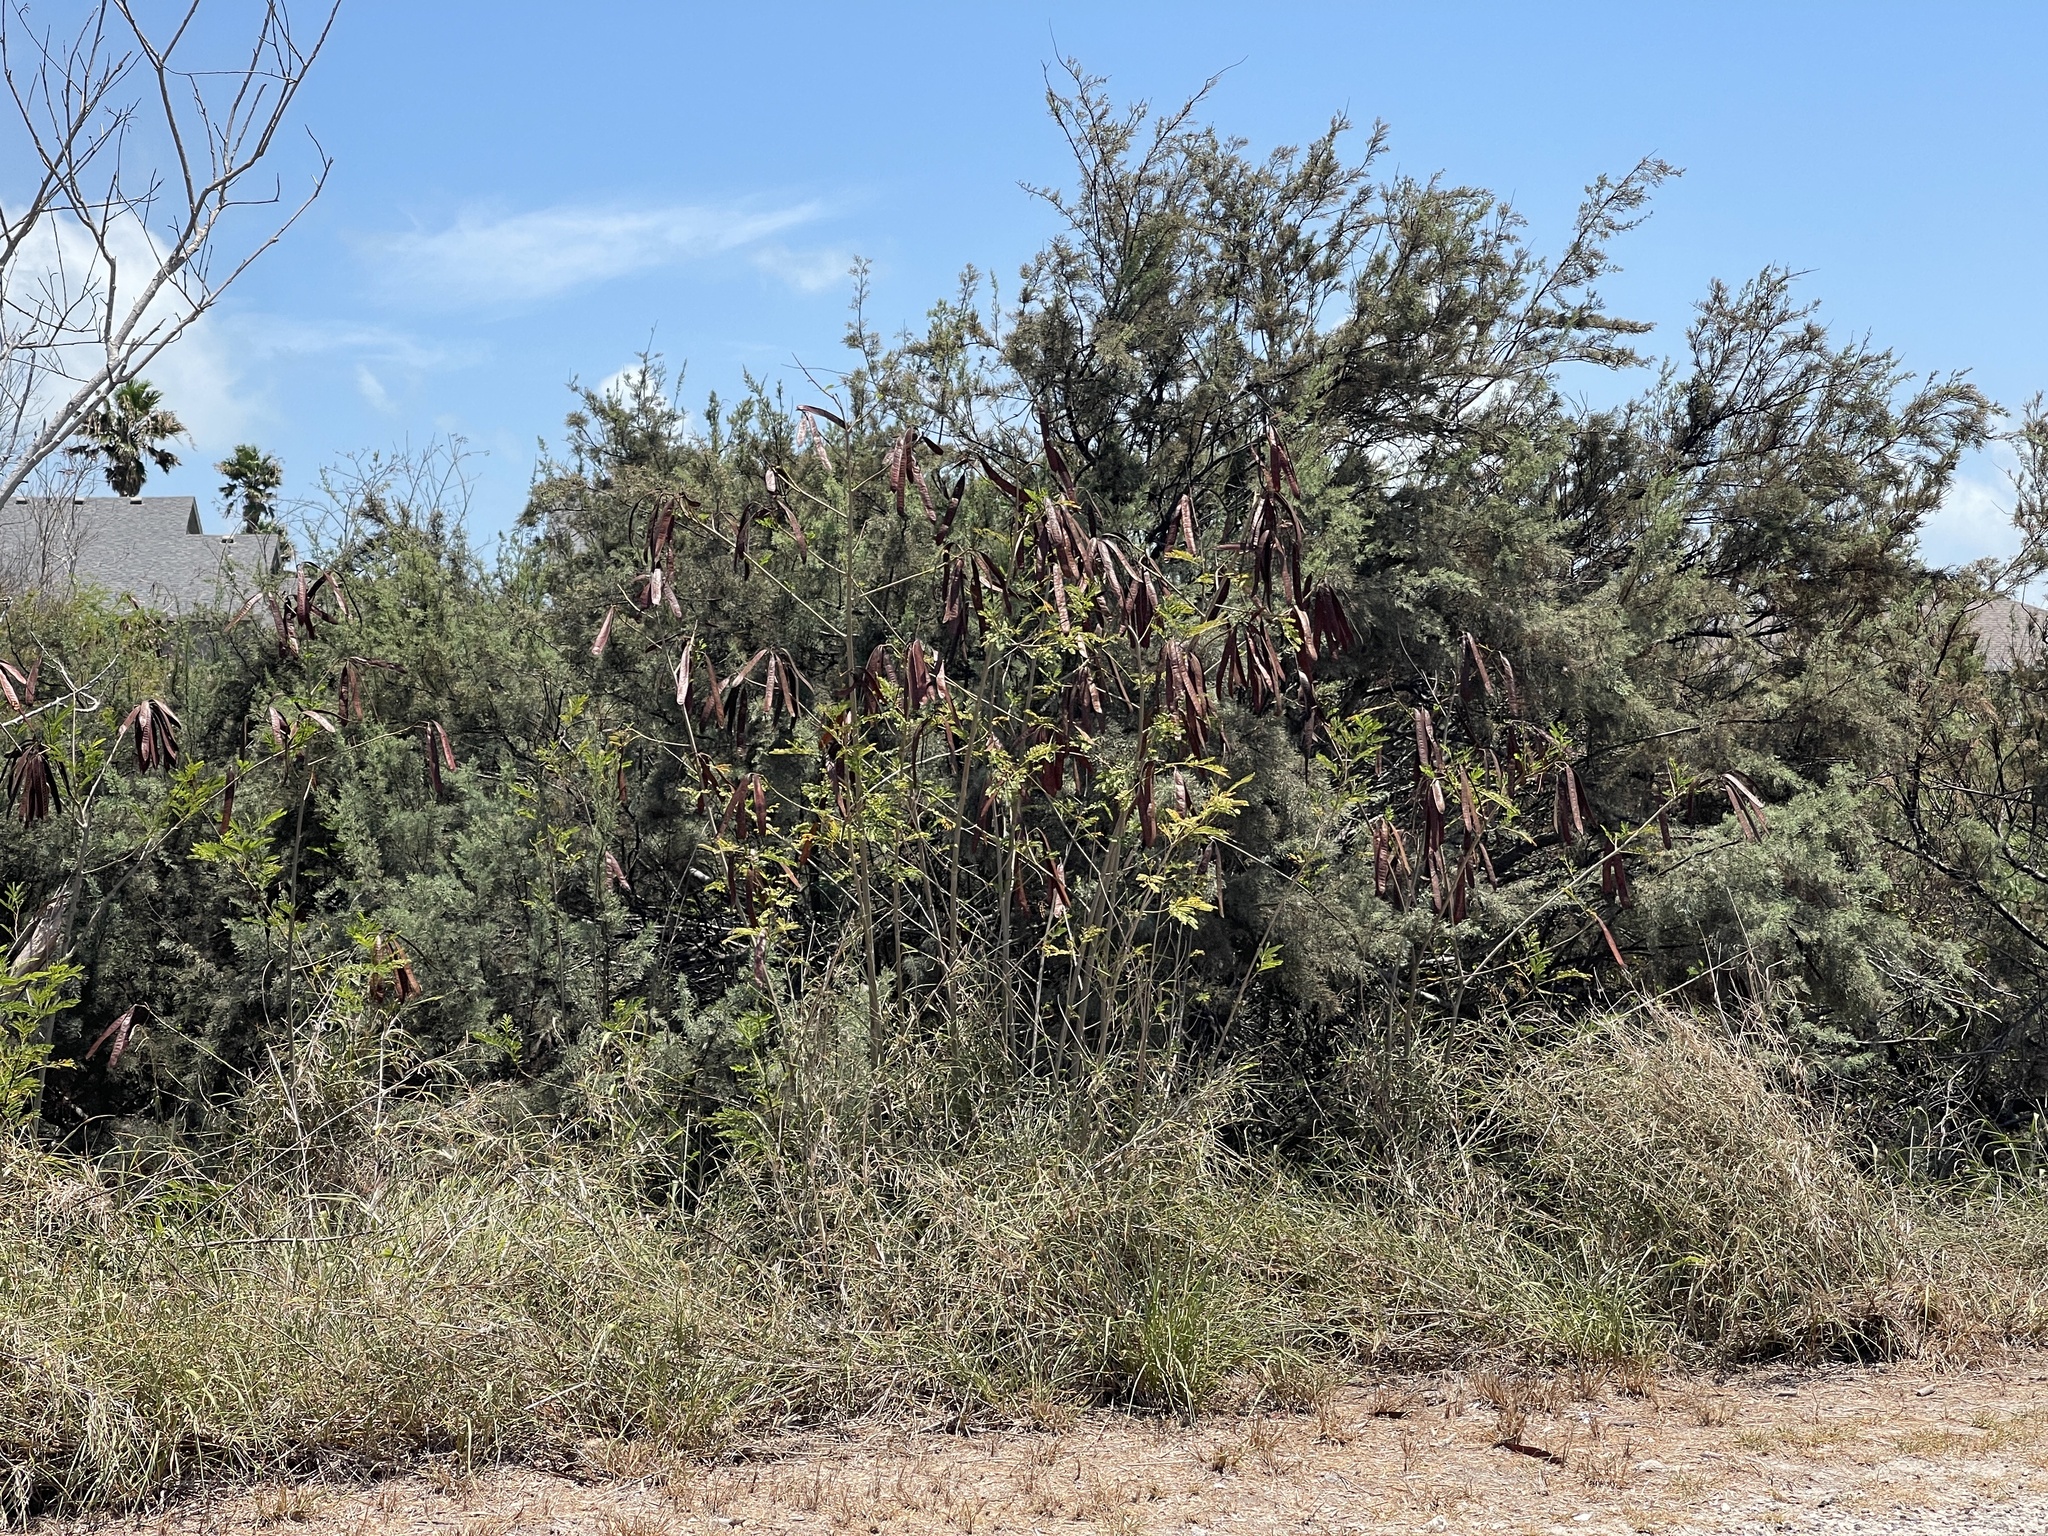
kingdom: Plantae
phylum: Tracheophyta
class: Magnoliopsida
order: Fabales
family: Fabaceae
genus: Leucaena
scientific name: Leucaena leucocephala
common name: White leadtree
